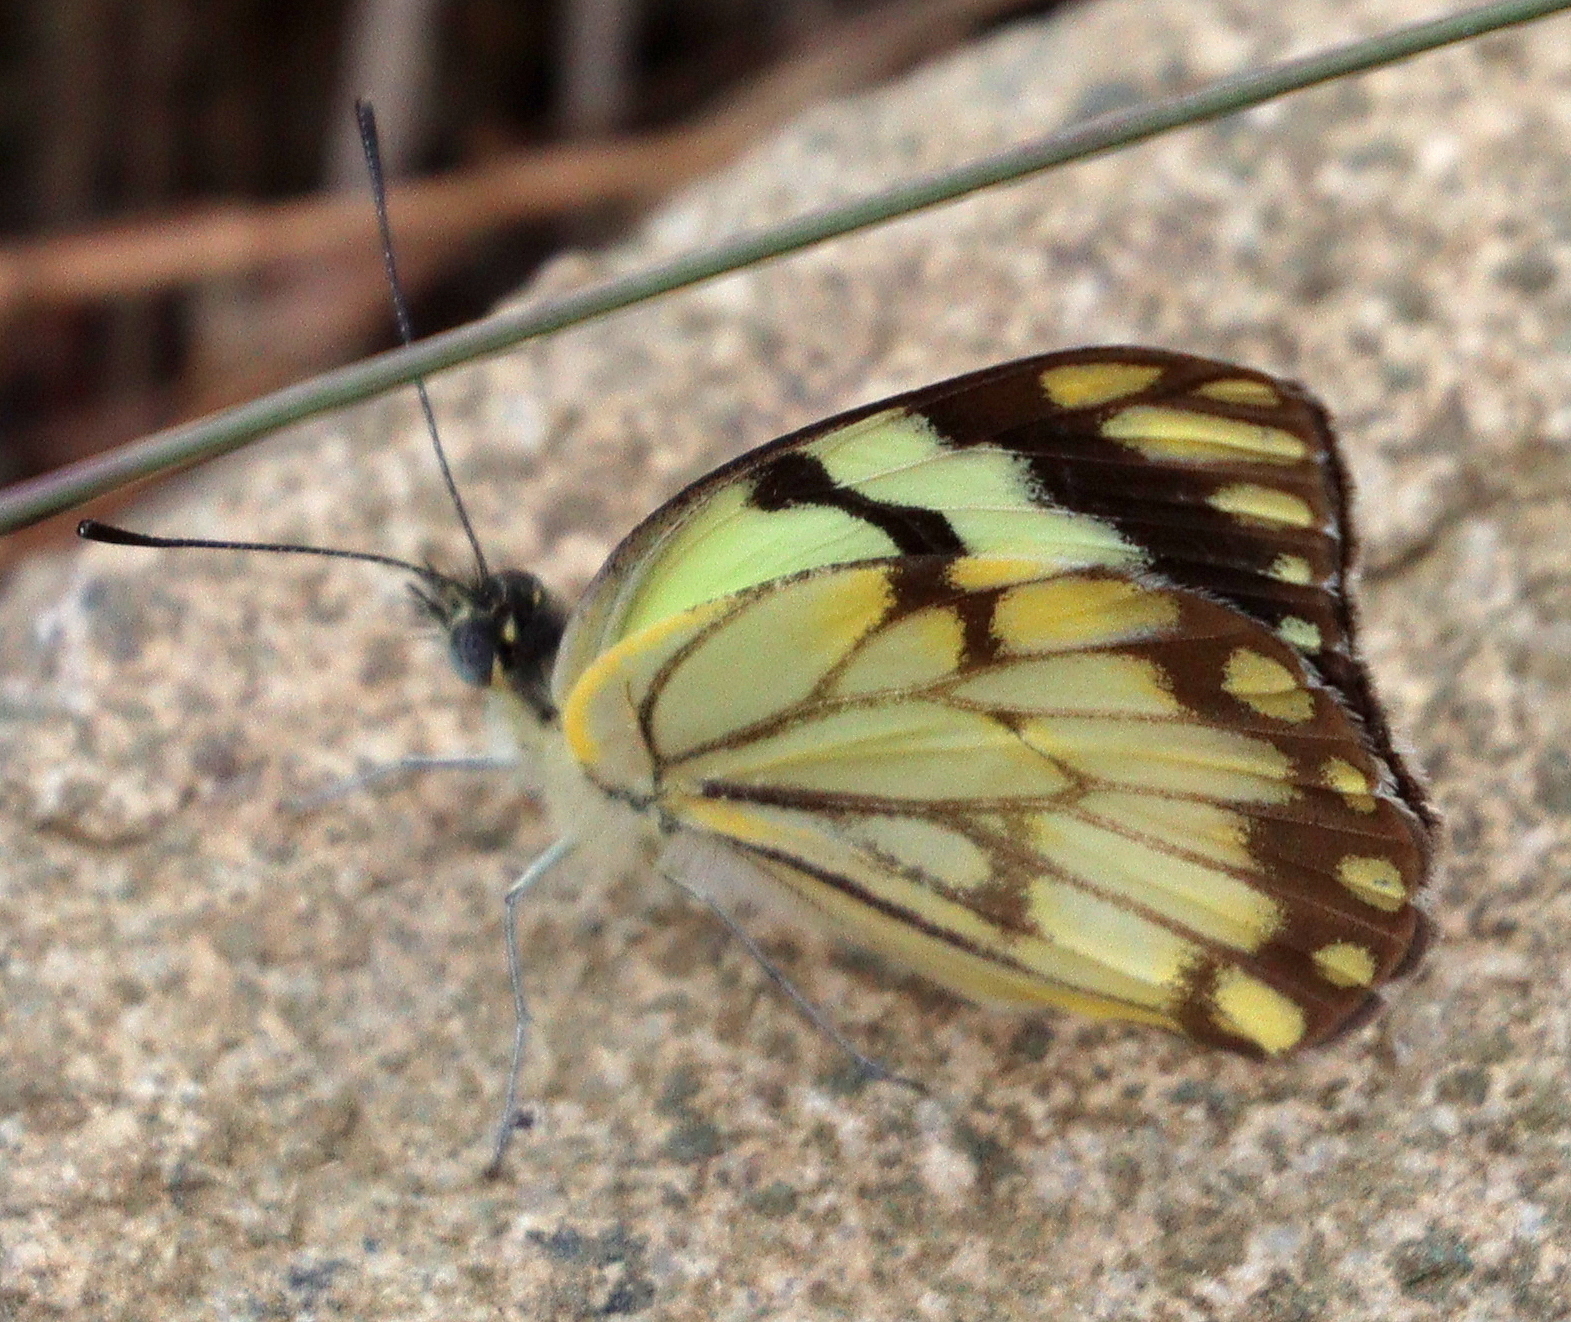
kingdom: Animalia
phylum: Arthropoda
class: Insecta
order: Lepidoptera
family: Pieridae
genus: Belenois
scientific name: Belenois aurota
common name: Brown-veined white
